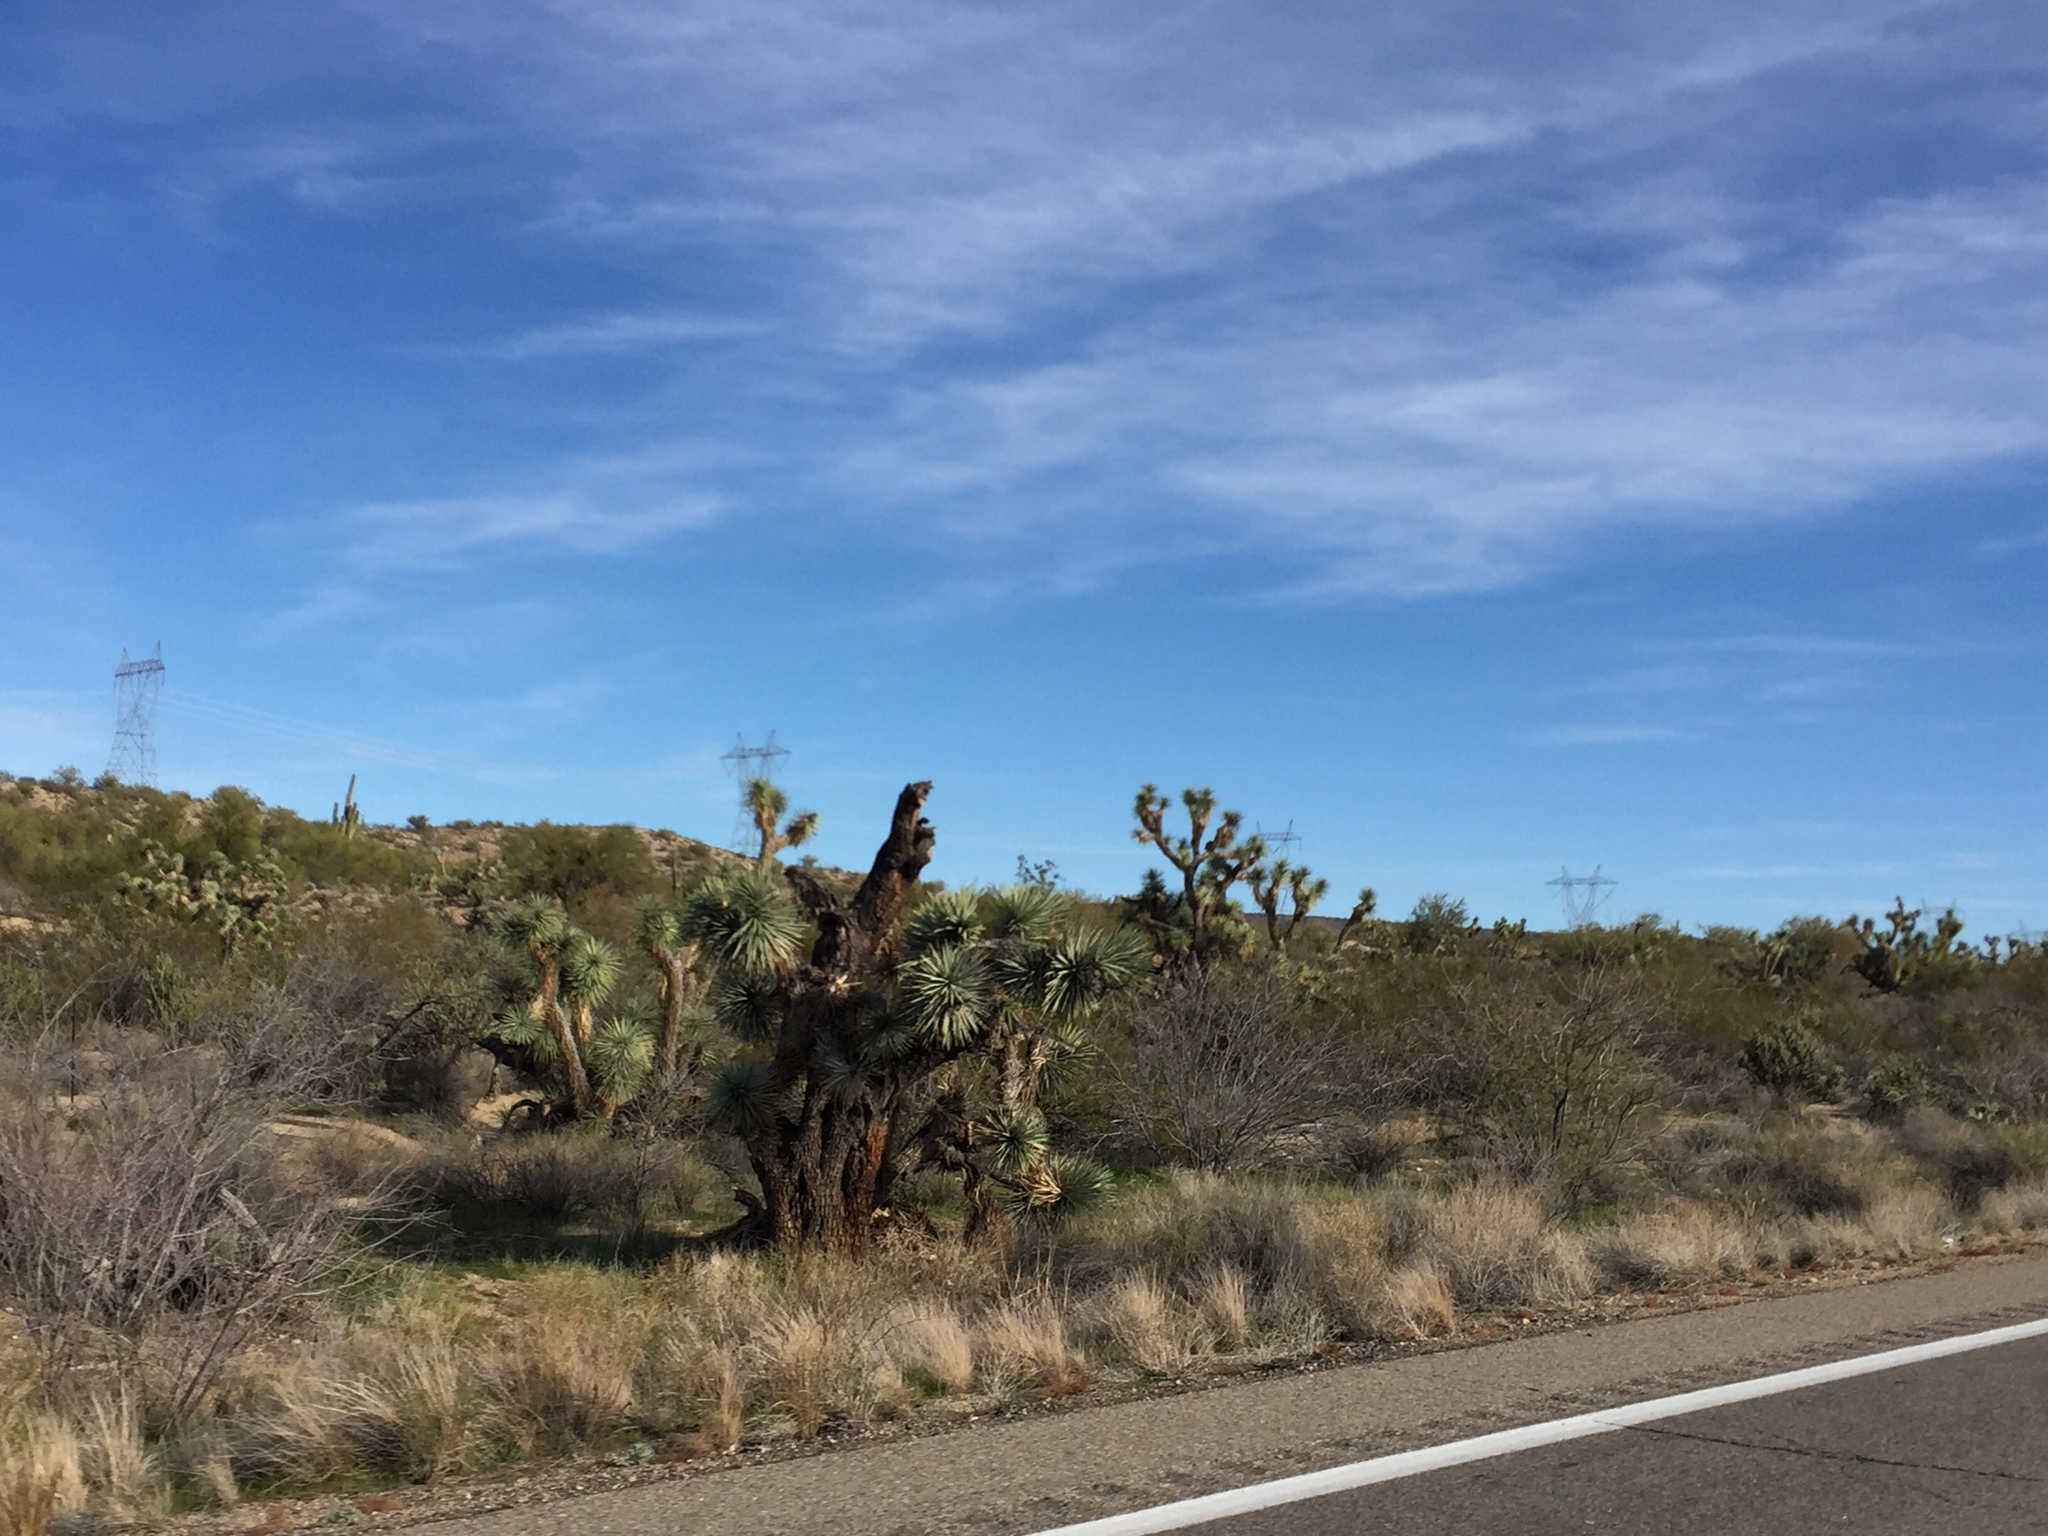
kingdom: Plantae
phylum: Tracheophyta
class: Liliopsida
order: Asparagales
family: Asparagaceae
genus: Yucca
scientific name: Yucca brevifolia
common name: Joshua tree
